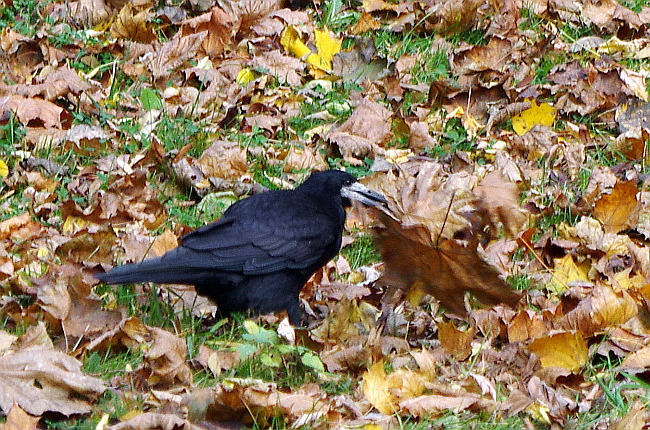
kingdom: Animalia
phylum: Chordata
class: Aves
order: Passeriformes
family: Corvidae
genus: Corvus
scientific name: Corvus frugilegus
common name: Rook
